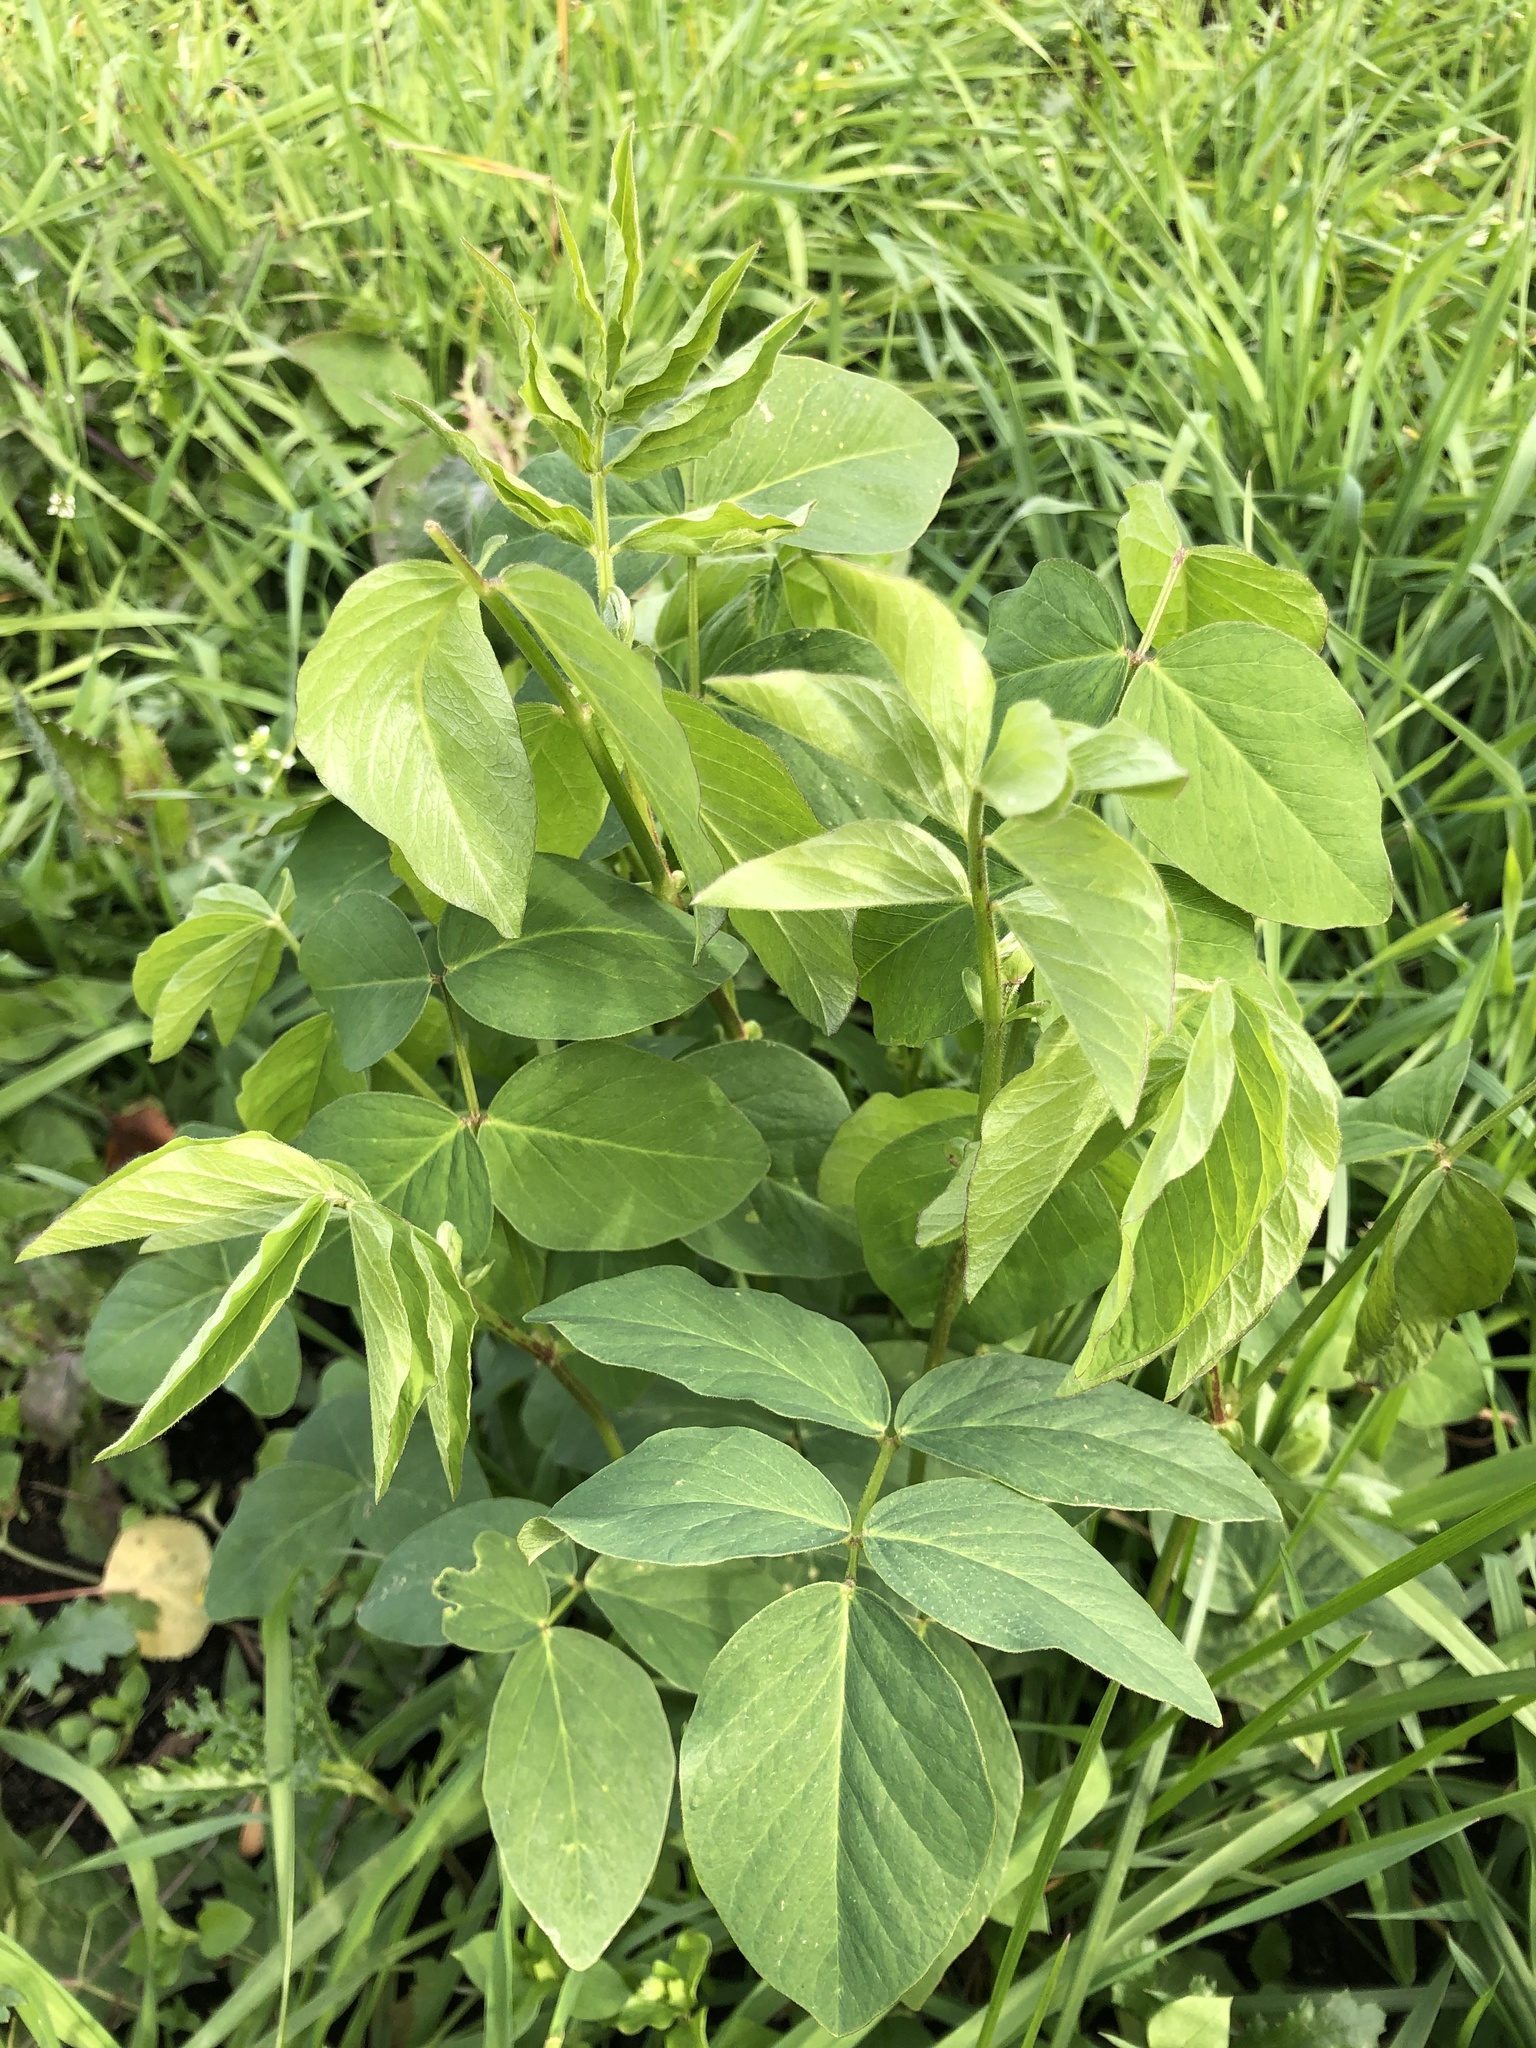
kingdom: Plantae
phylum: Tracheophyta
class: Magnoliopsida
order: Fabales
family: Fabaceae
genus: Galega
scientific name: Galega orientalis
